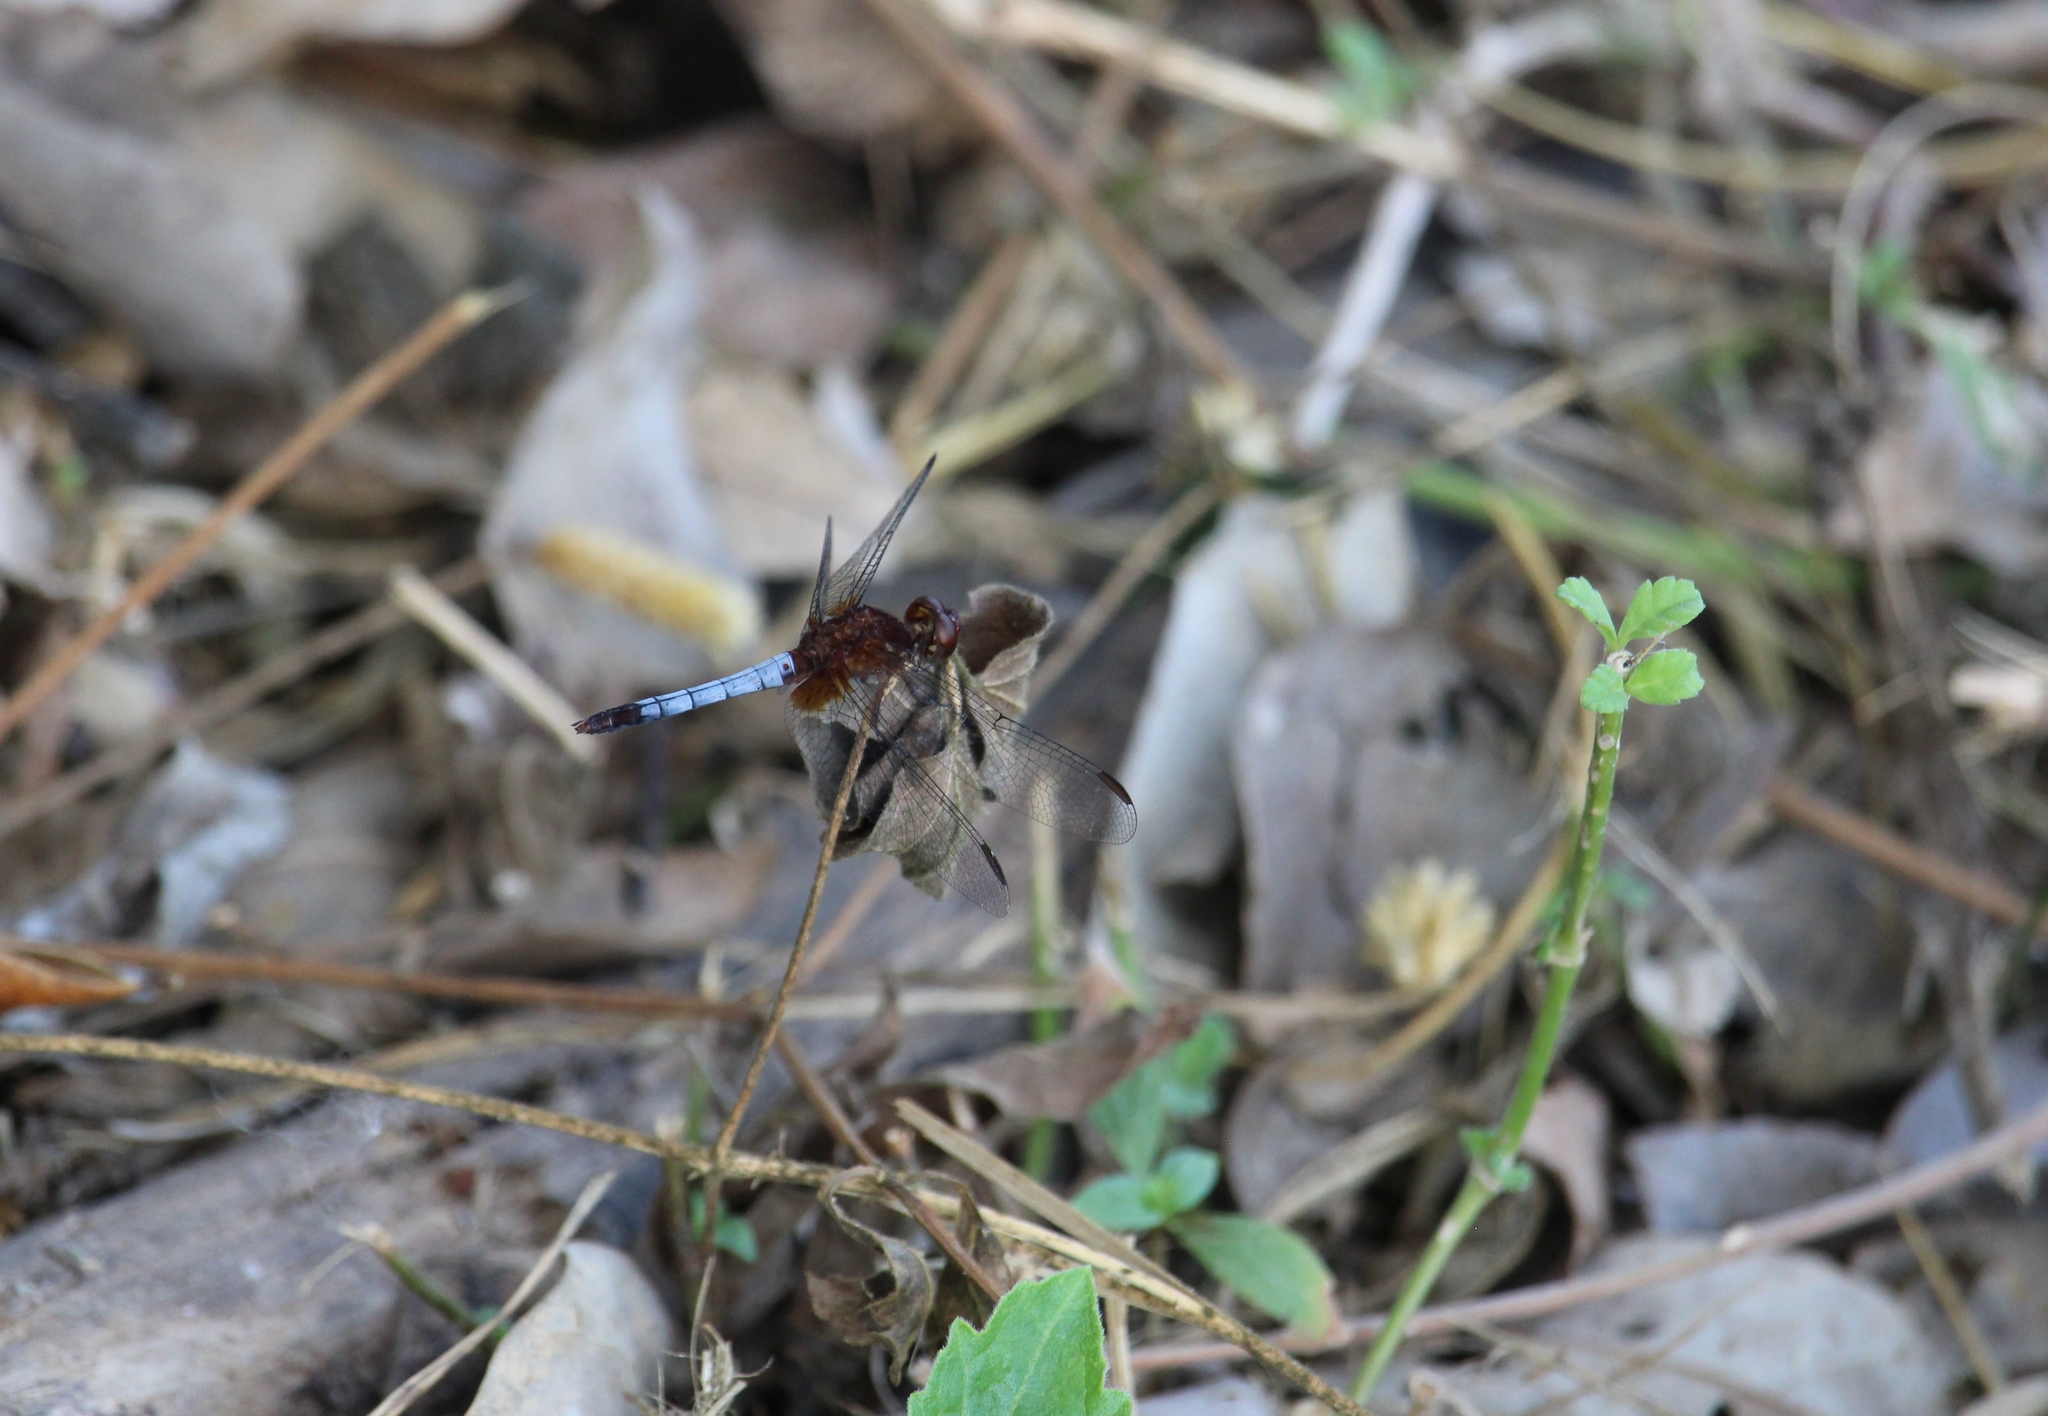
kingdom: Animalia
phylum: Arthropoda
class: Insecta
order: Odonata
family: Libellulidae
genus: Erythrodiplax
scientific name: Erythrodiplax fusca
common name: Red-faced dragonlet
